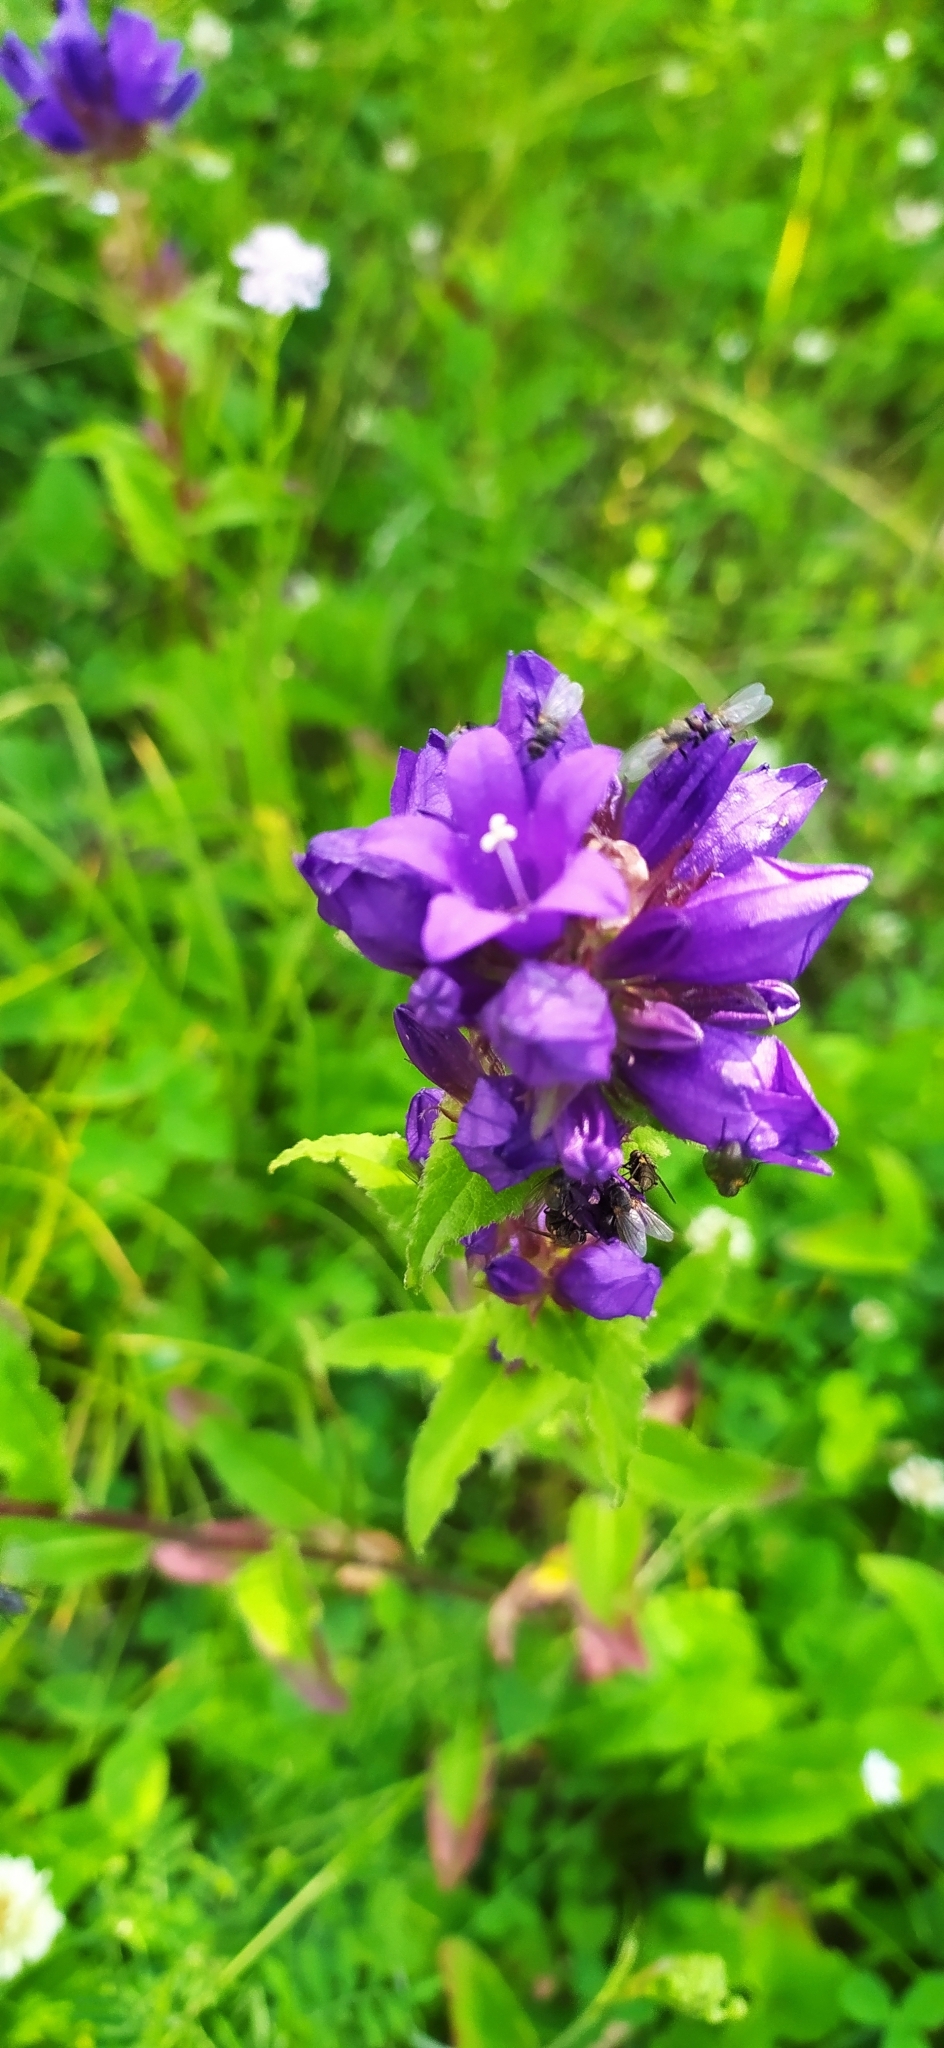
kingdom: Plantae
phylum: Tracheophyta
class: Magnoliopsida
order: Asterales
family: Campanulaceae
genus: Campanula
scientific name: Campanula glomerata
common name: Clustered bellflower
